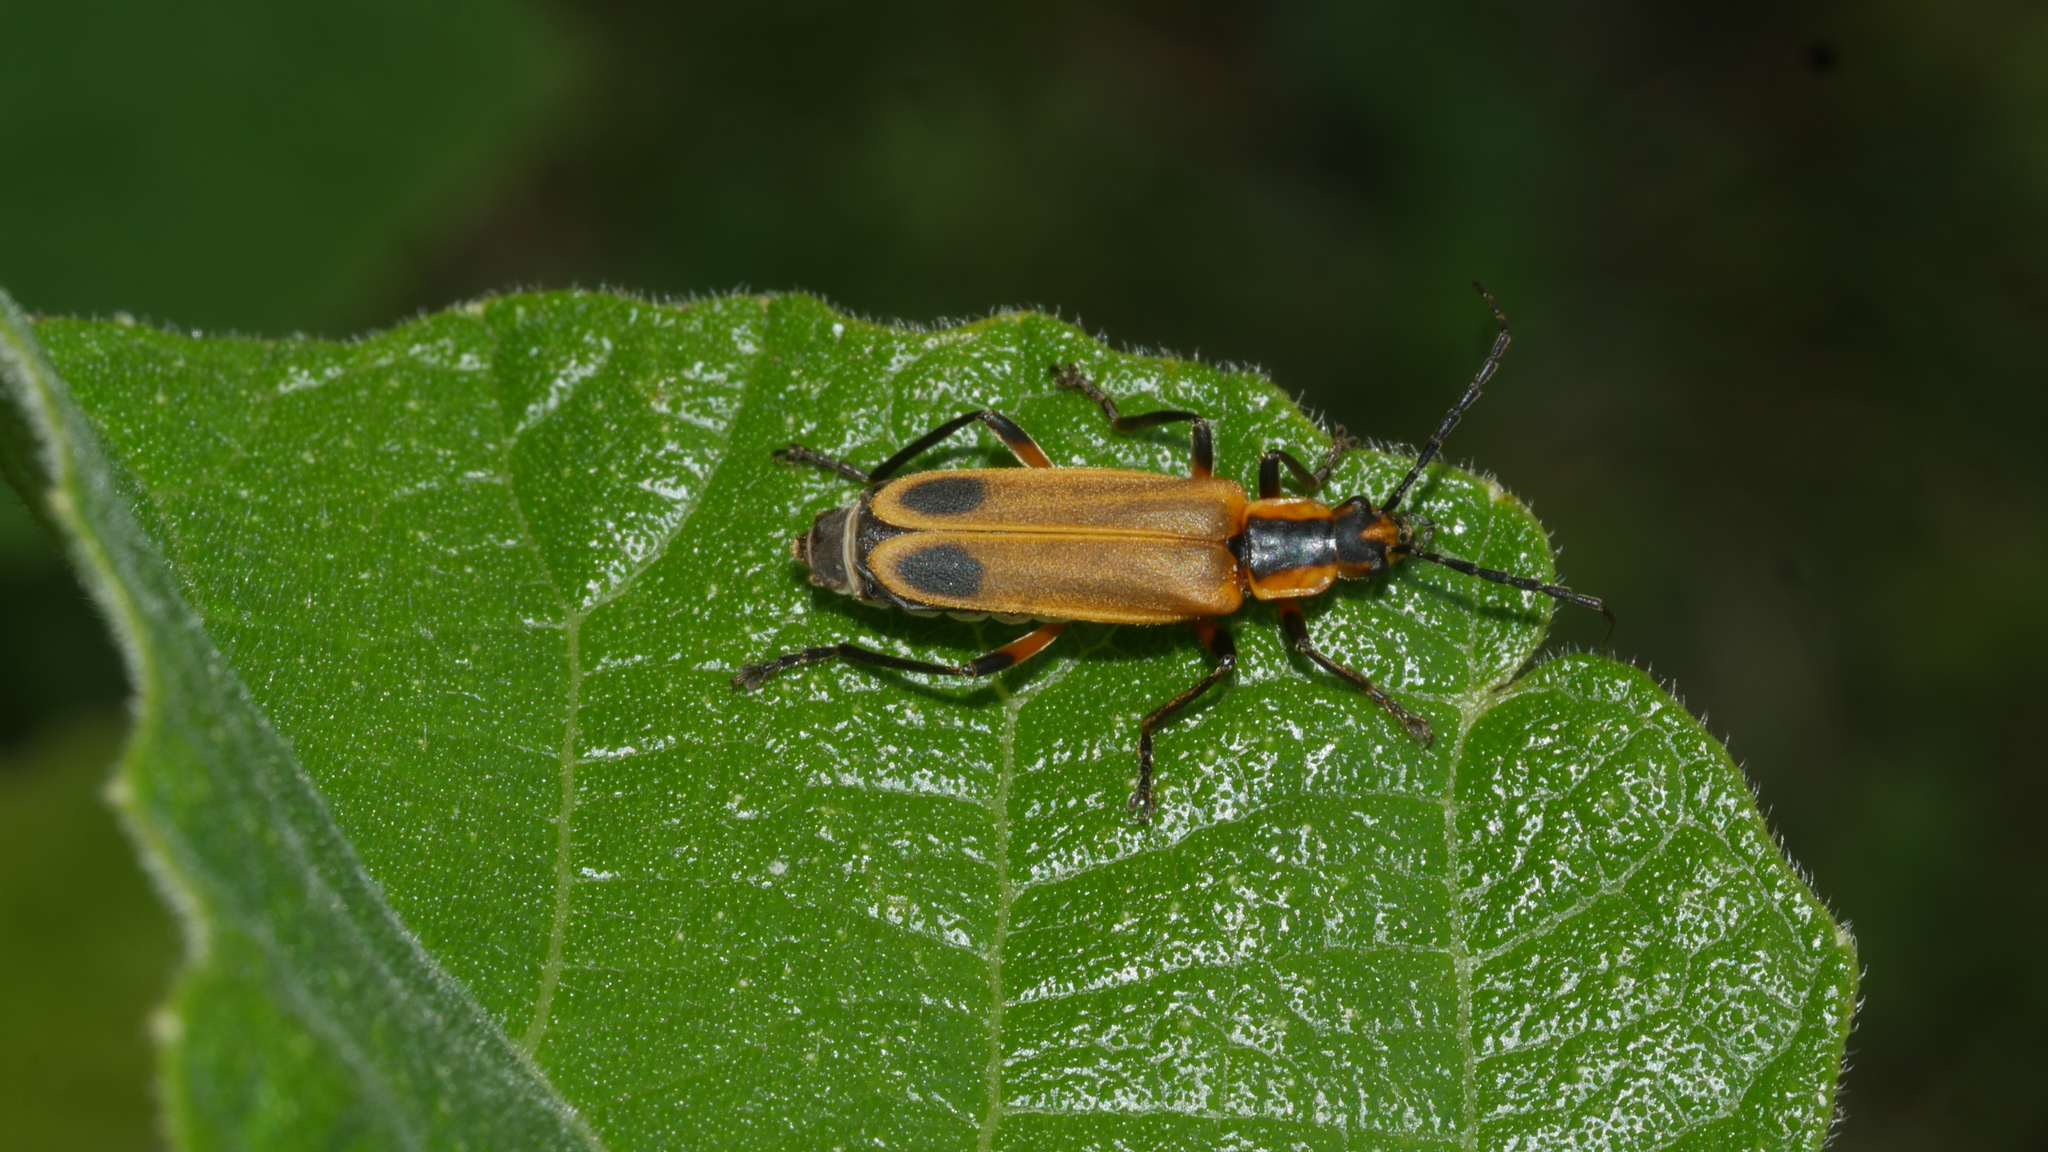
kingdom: Animalia
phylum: Arthropoda
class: Insecta
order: Coleoptera
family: Cantharidae
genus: Chauliognathus
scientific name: Chauliognathus marginatus
